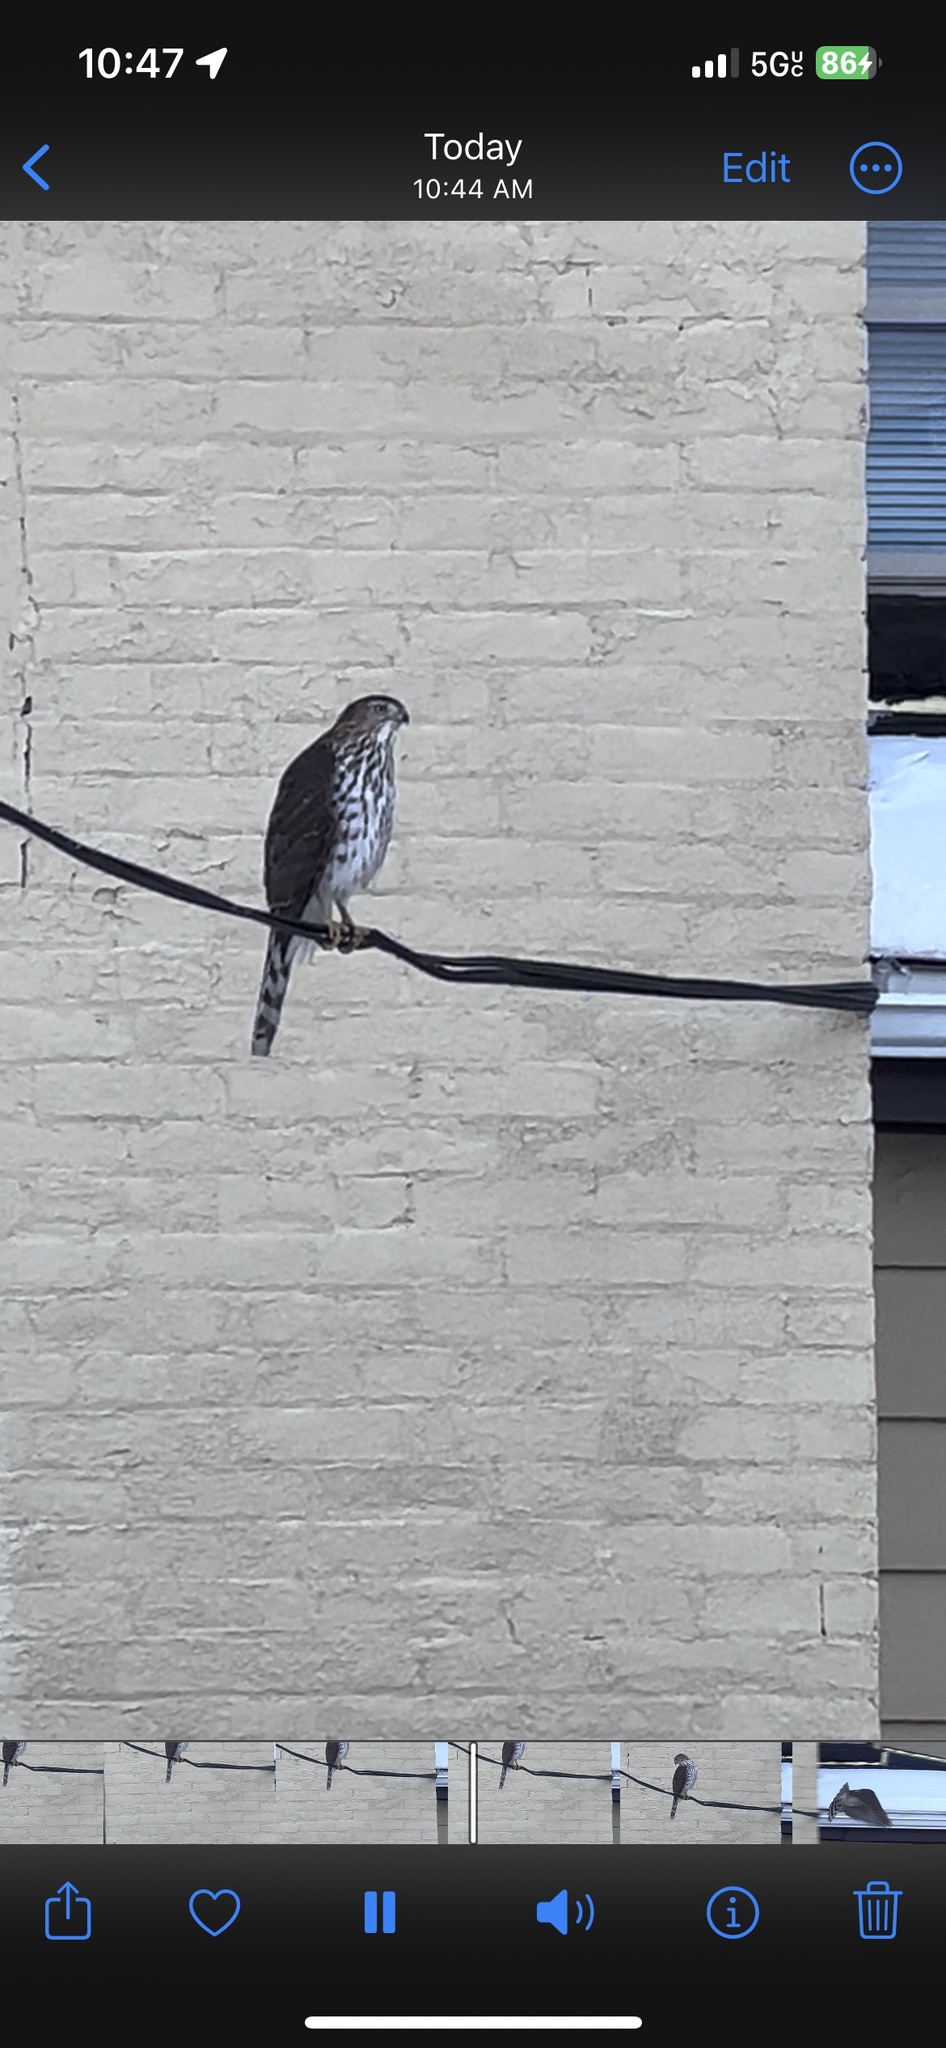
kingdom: Animalia
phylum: Chordata
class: Aves
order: Accipitriformes
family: Accipitridae
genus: Accipiter
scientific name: Accipiter cooperii
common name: Cooper's hawk
